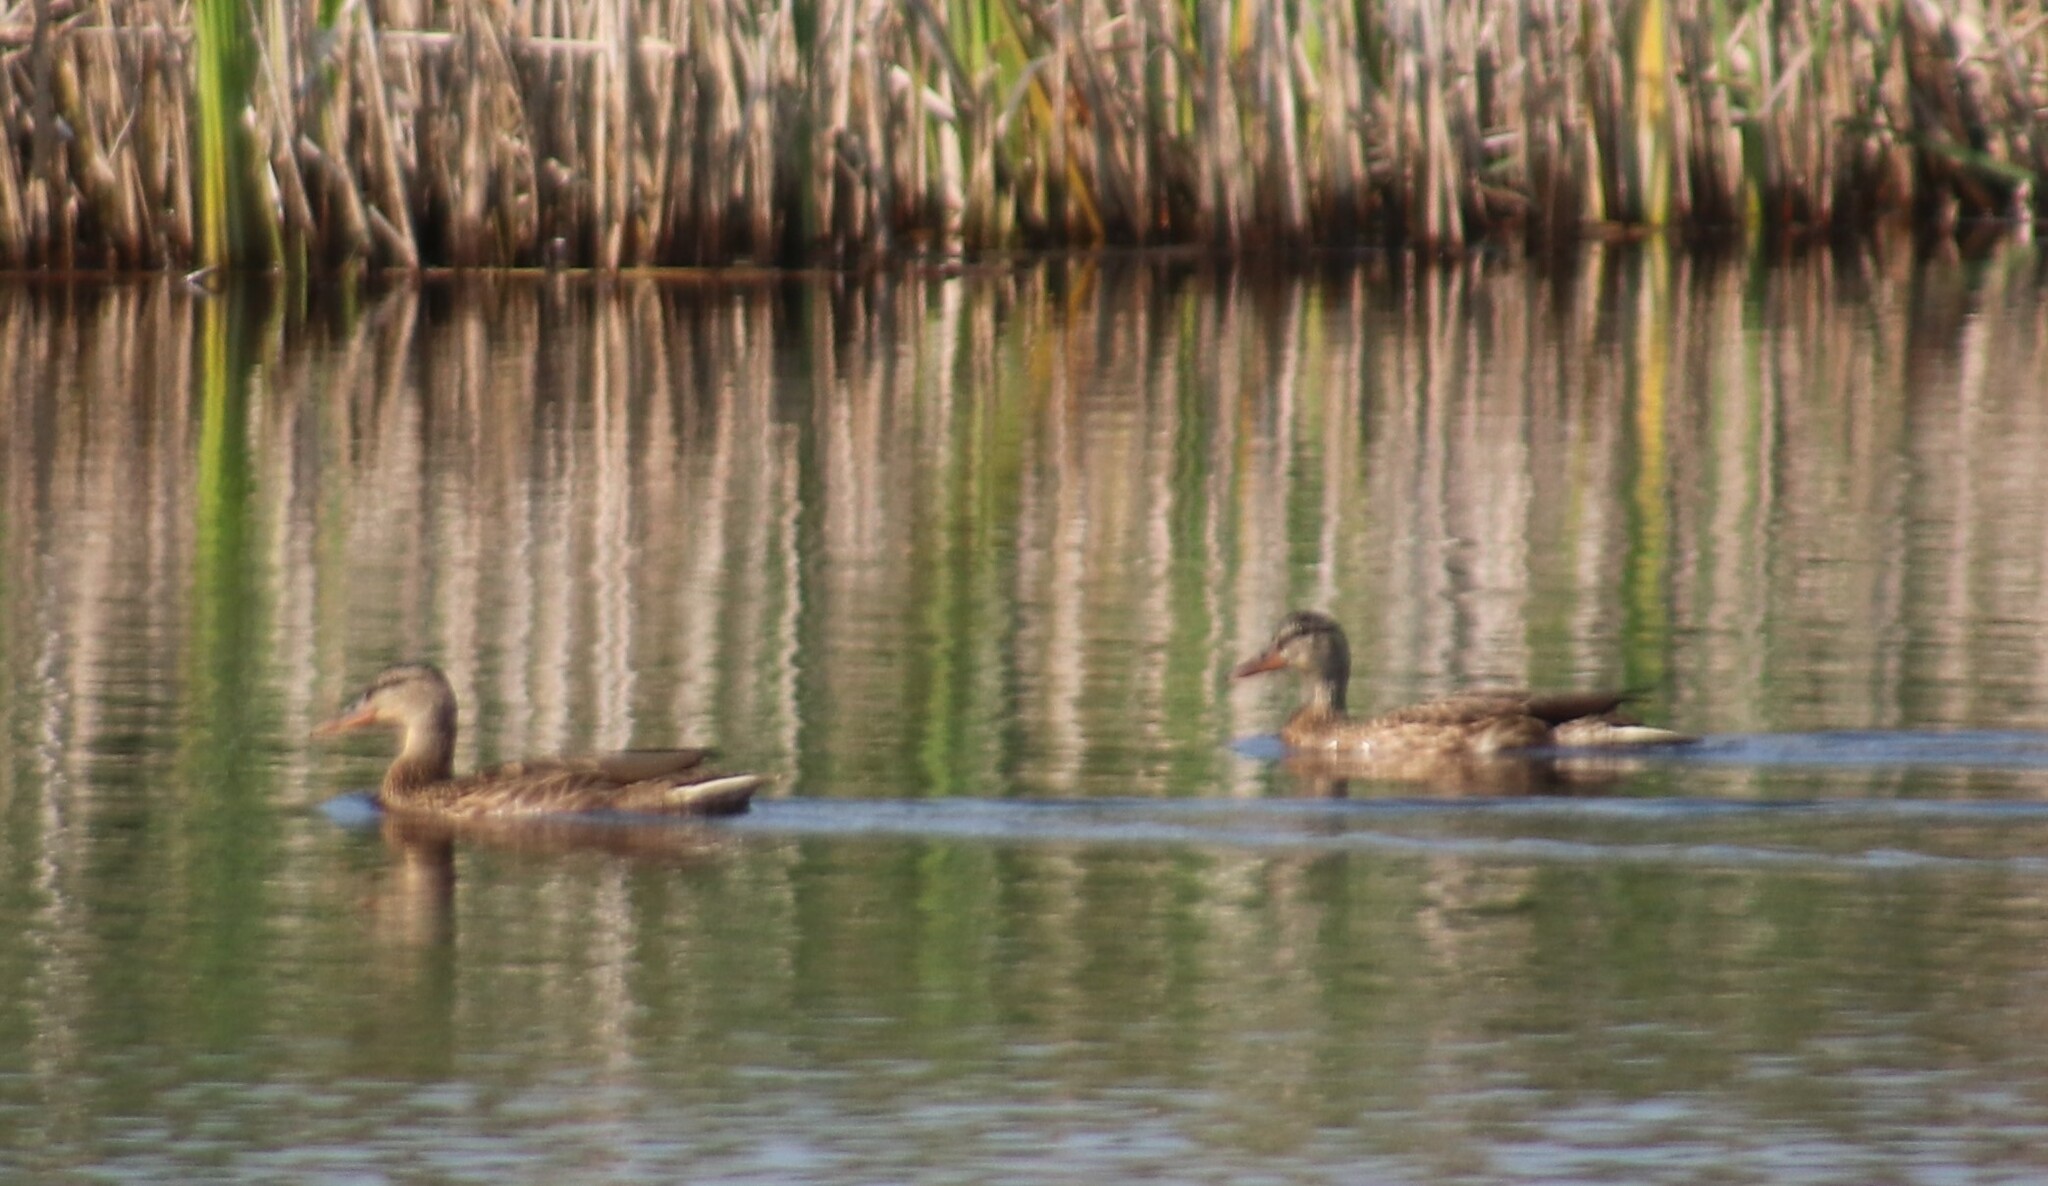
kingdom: Animalia
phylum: Chordata
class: Aves
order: Anseriformes
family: Anatidae
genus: Anas
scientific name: Anas platyrhynchos
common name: Mallard
